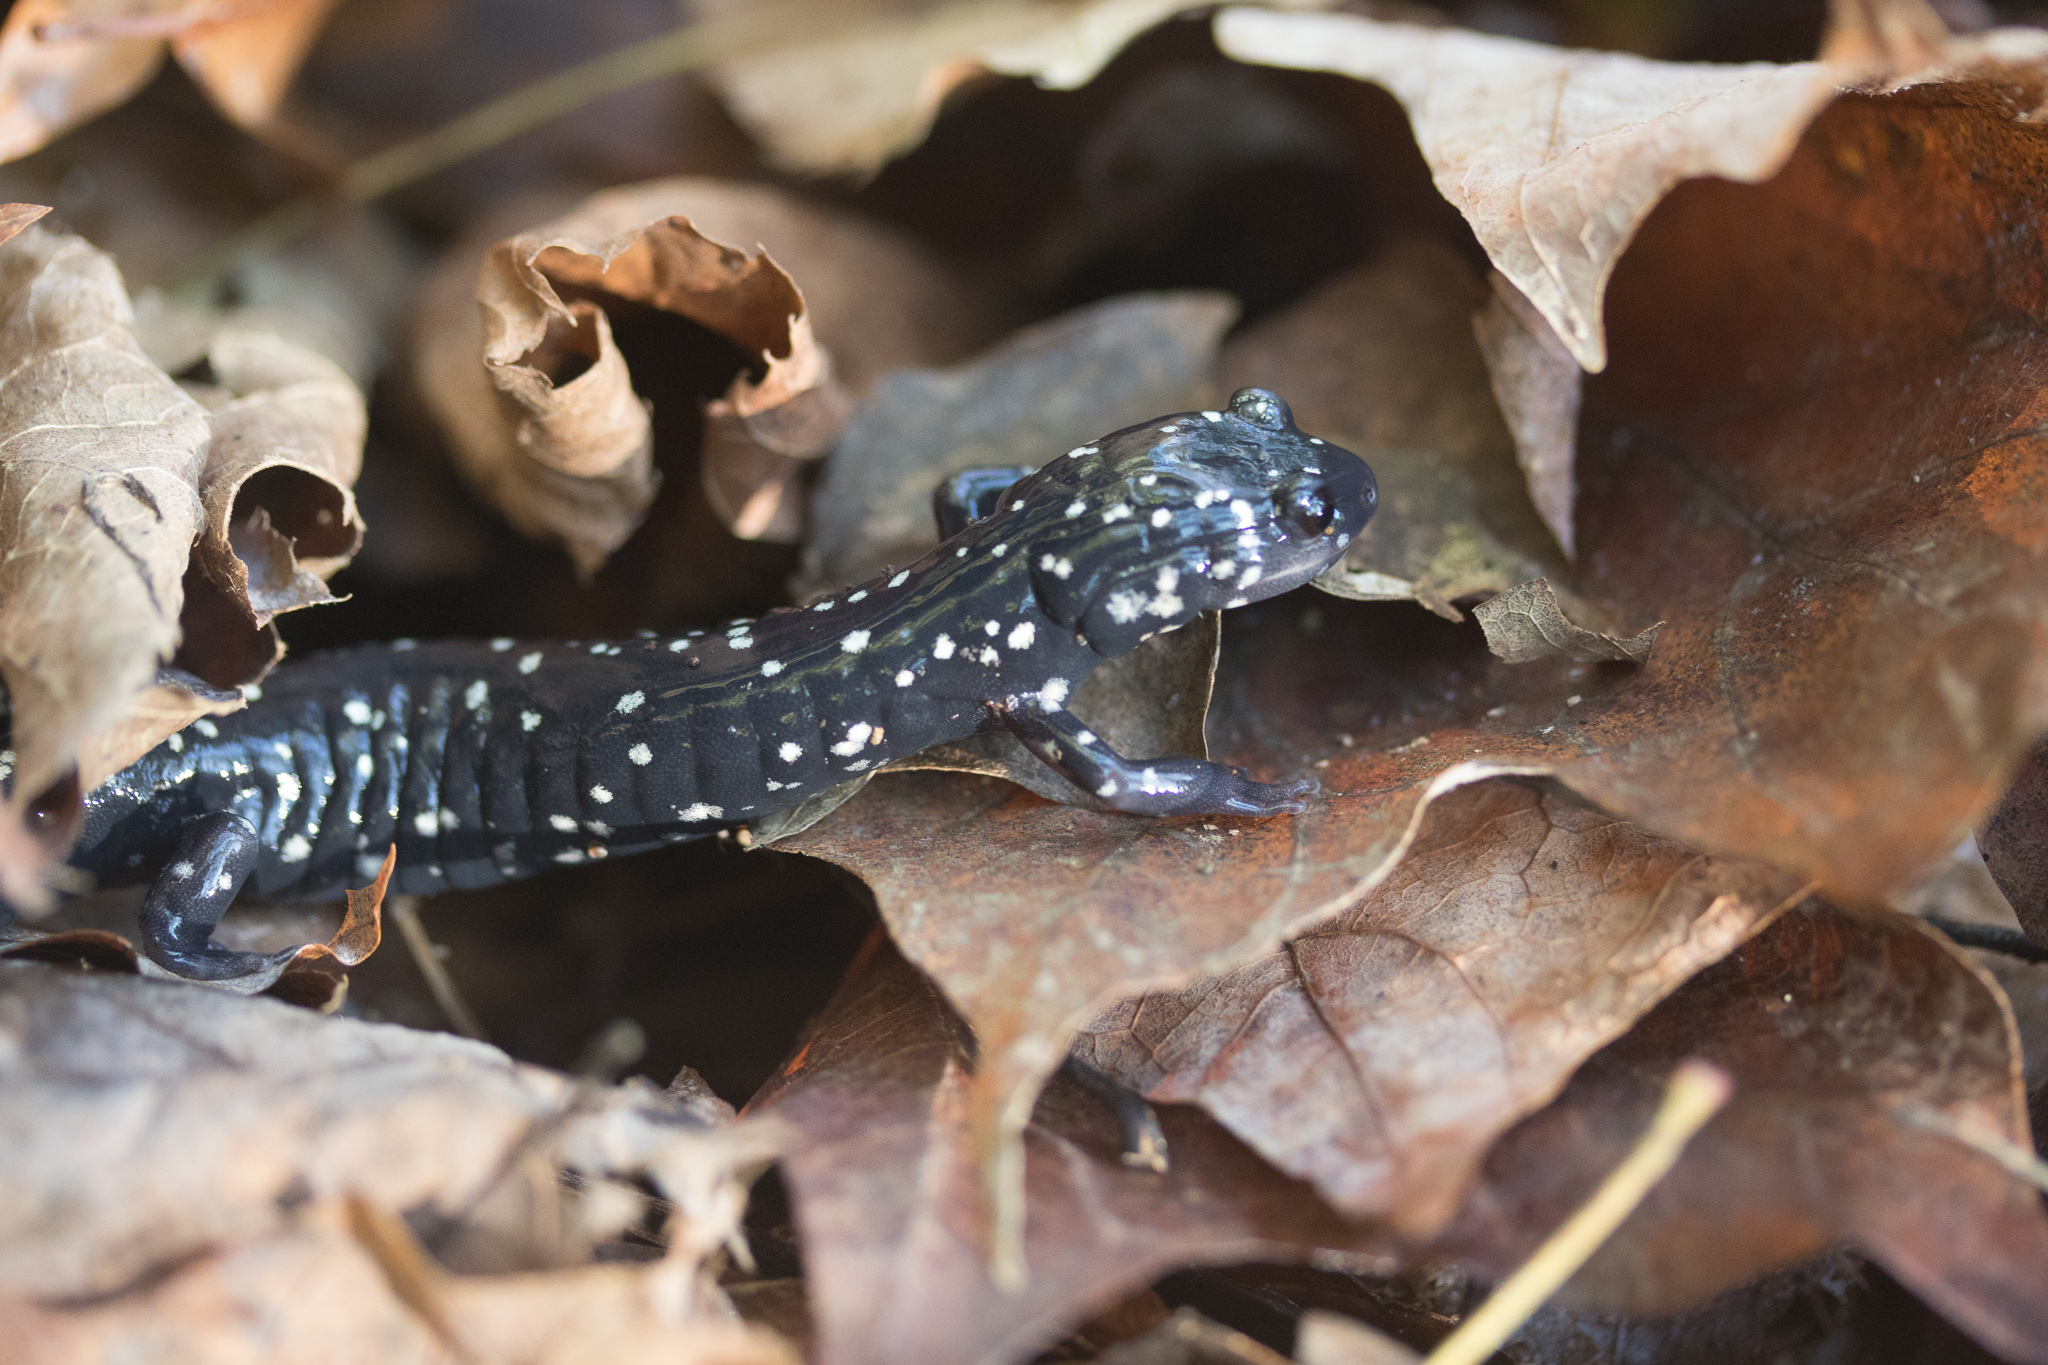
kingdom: Animalia
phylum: Chordata
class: Amphibia
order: Caudata
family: Plethodontidae
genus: Plethodon
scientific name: Plethodon glutinosus
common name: Northern slimy salamander
